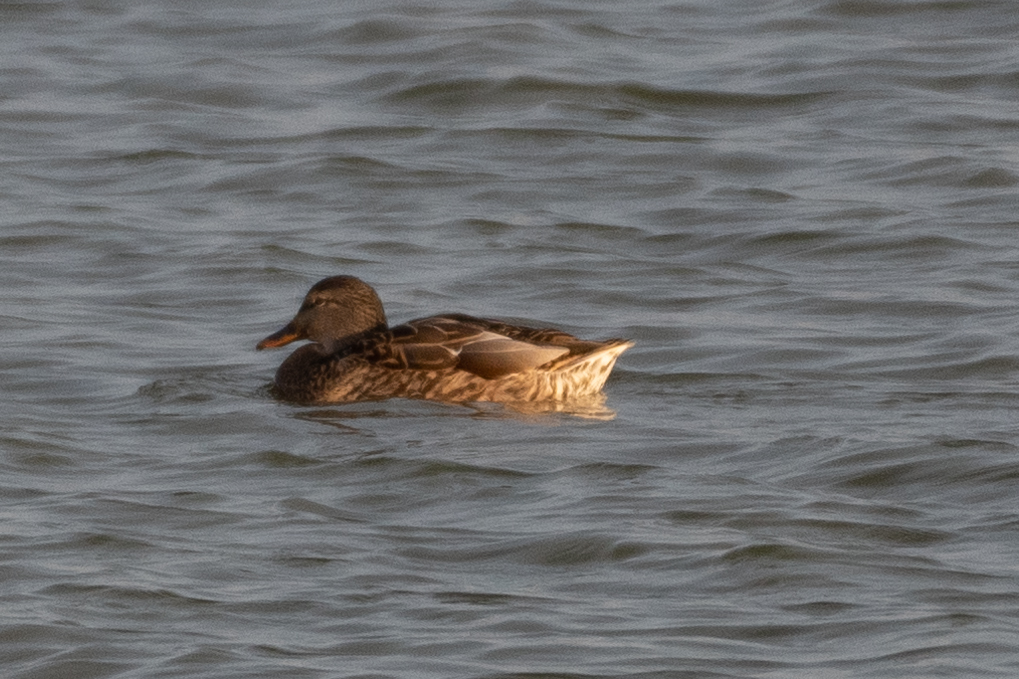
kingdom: Animalia
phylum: Chordata
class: Aves
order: Anseriformes
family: Anatidae
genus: Anas
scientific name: Anas platyrhynchos
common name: Mallard
